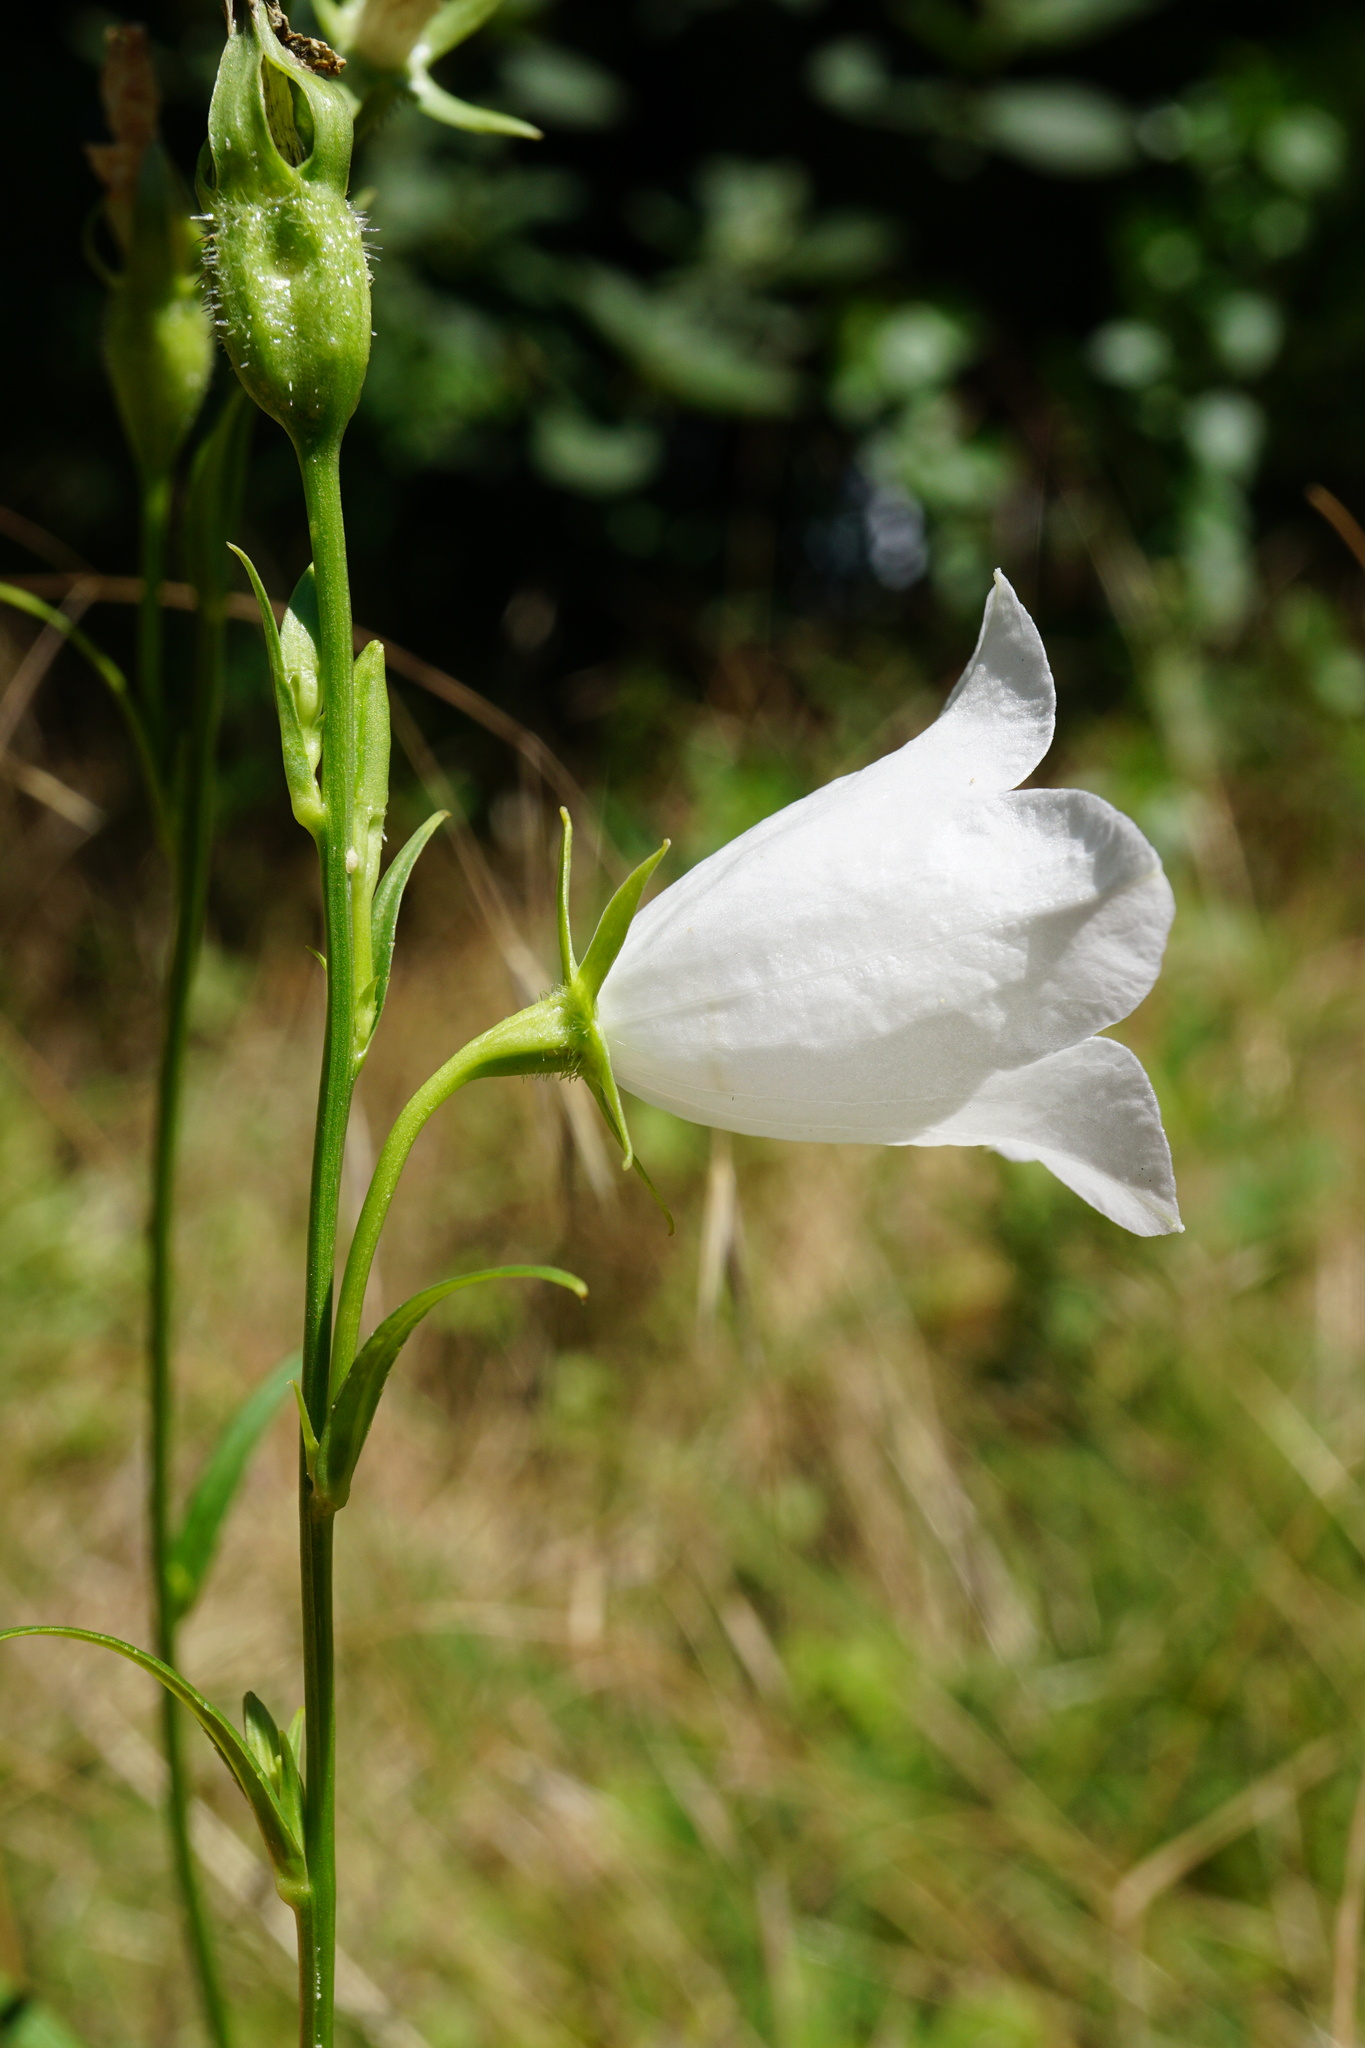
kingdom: Plantae
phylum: Tracheophyta
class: Magnoliopsida
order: Asterales
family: Campanulaceae
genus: Campanula
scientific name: Campanula persicifolia
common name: Peach-leaved bellflower
